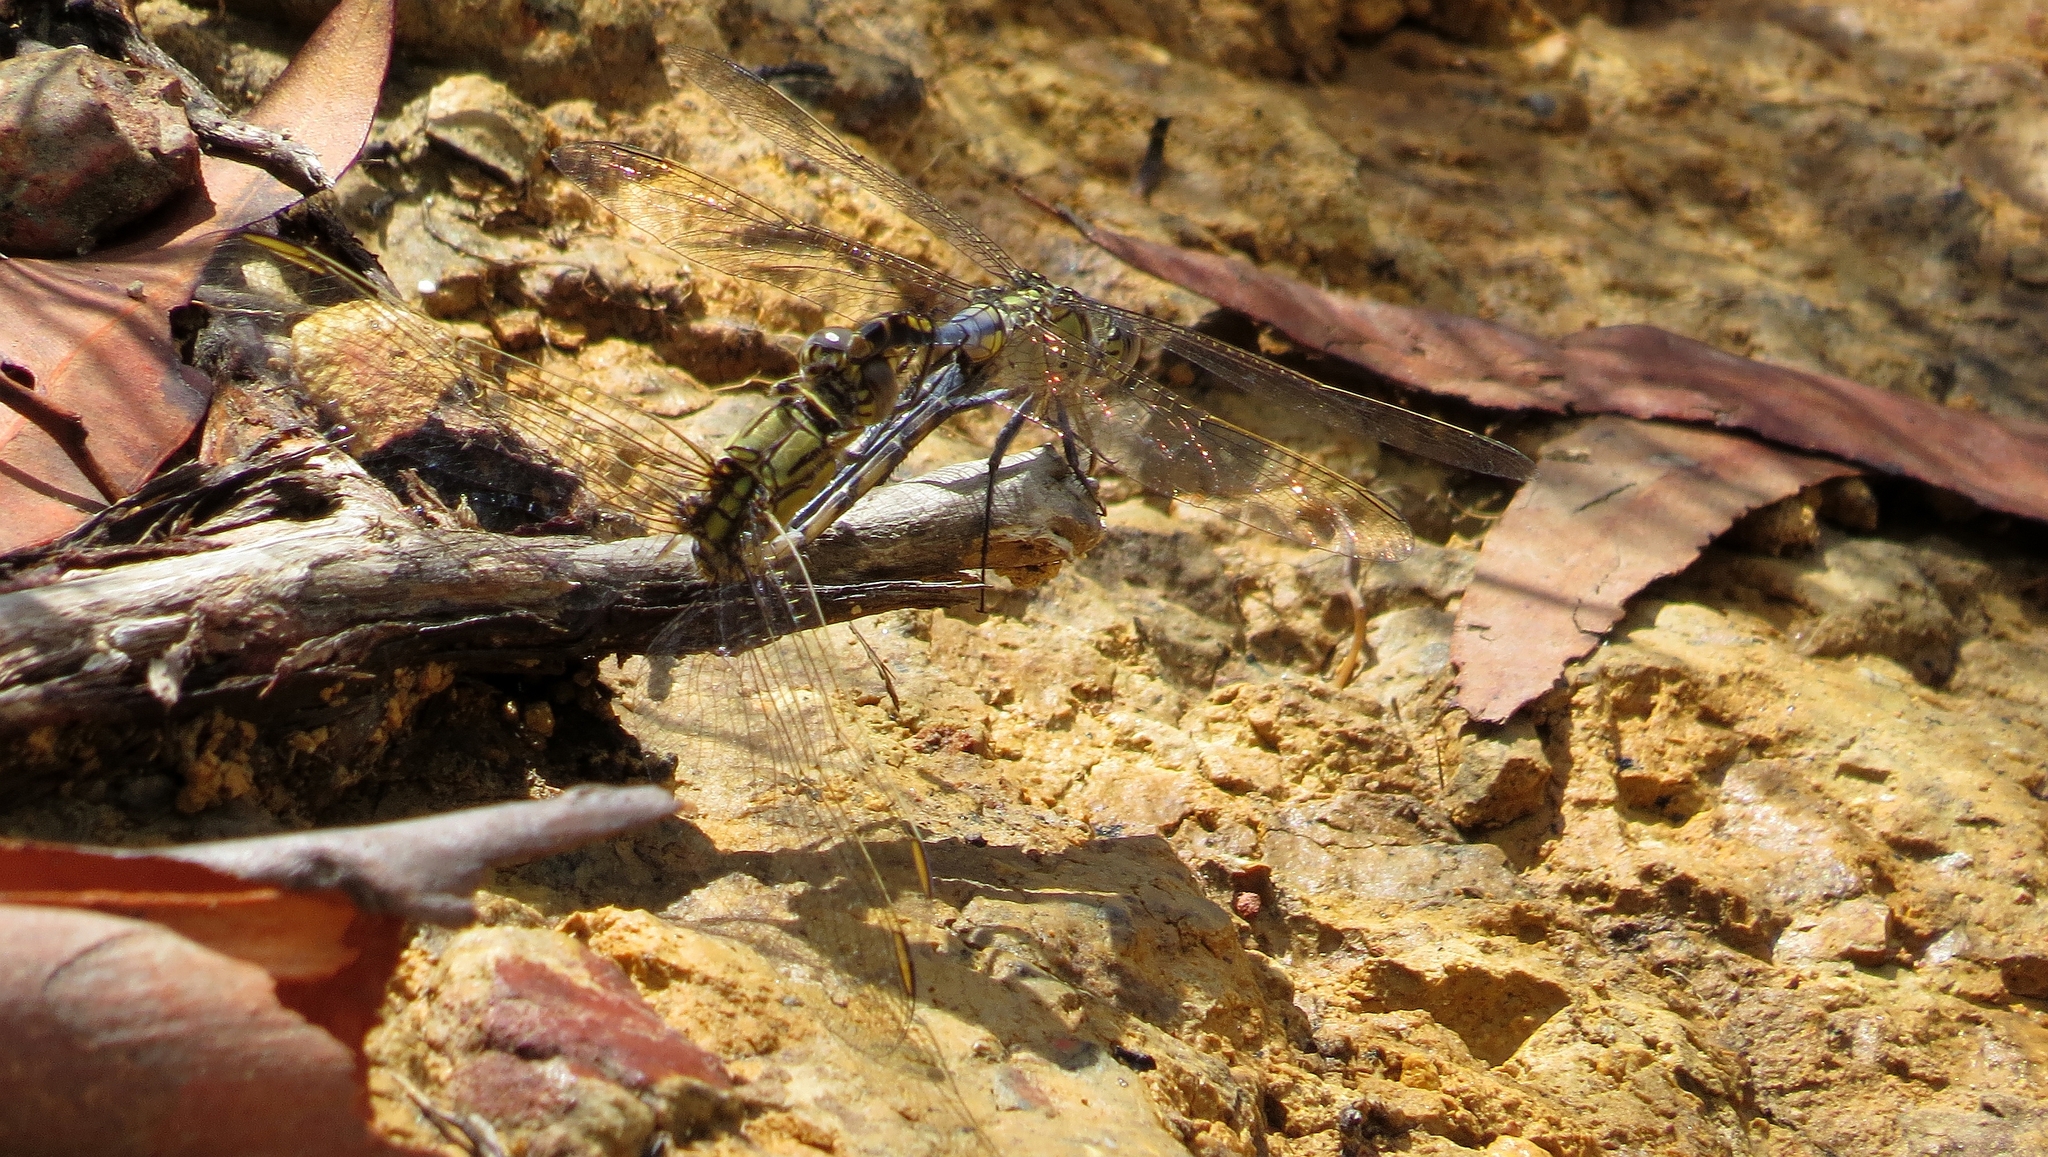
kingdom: Animalia
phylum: Arthropoda
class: Insecta
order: Odonata
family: Libellulidae
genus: Orthetrum
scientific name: Orthetrum caledonicum
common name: Blue skimmer
